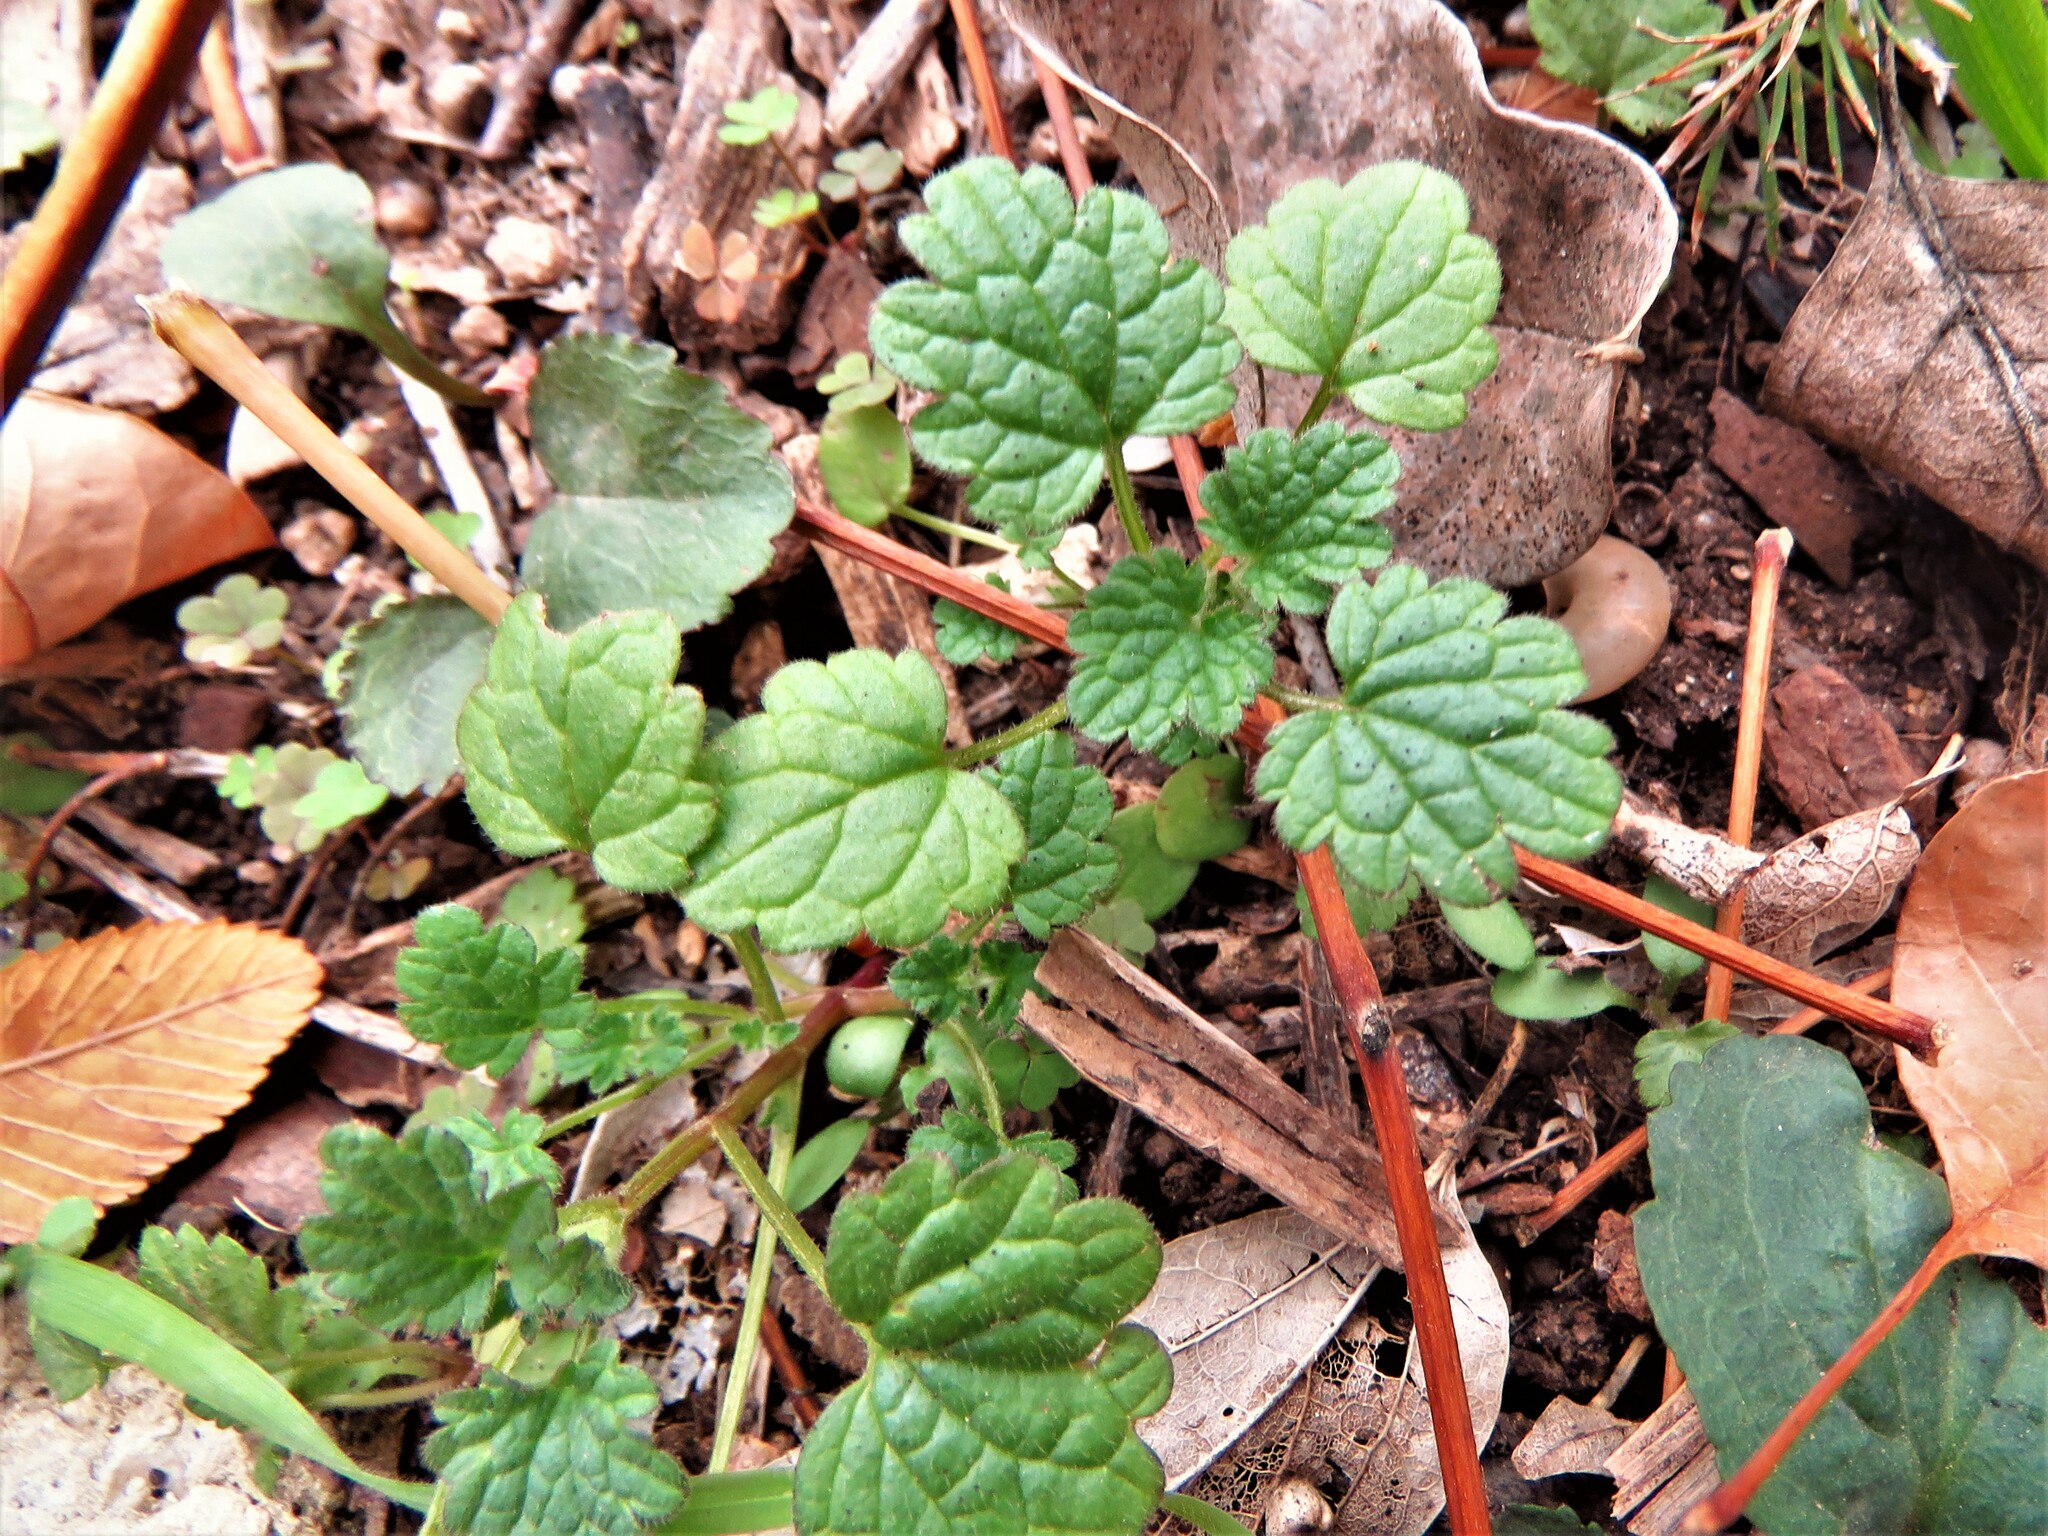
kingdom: Plantae
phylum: Tracheophyta
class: Magnoliopsida
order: Lamiales
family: Lamiaceae
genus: Lamium
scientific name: Lamium amplexicaule
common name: Henbit dead-nettle
